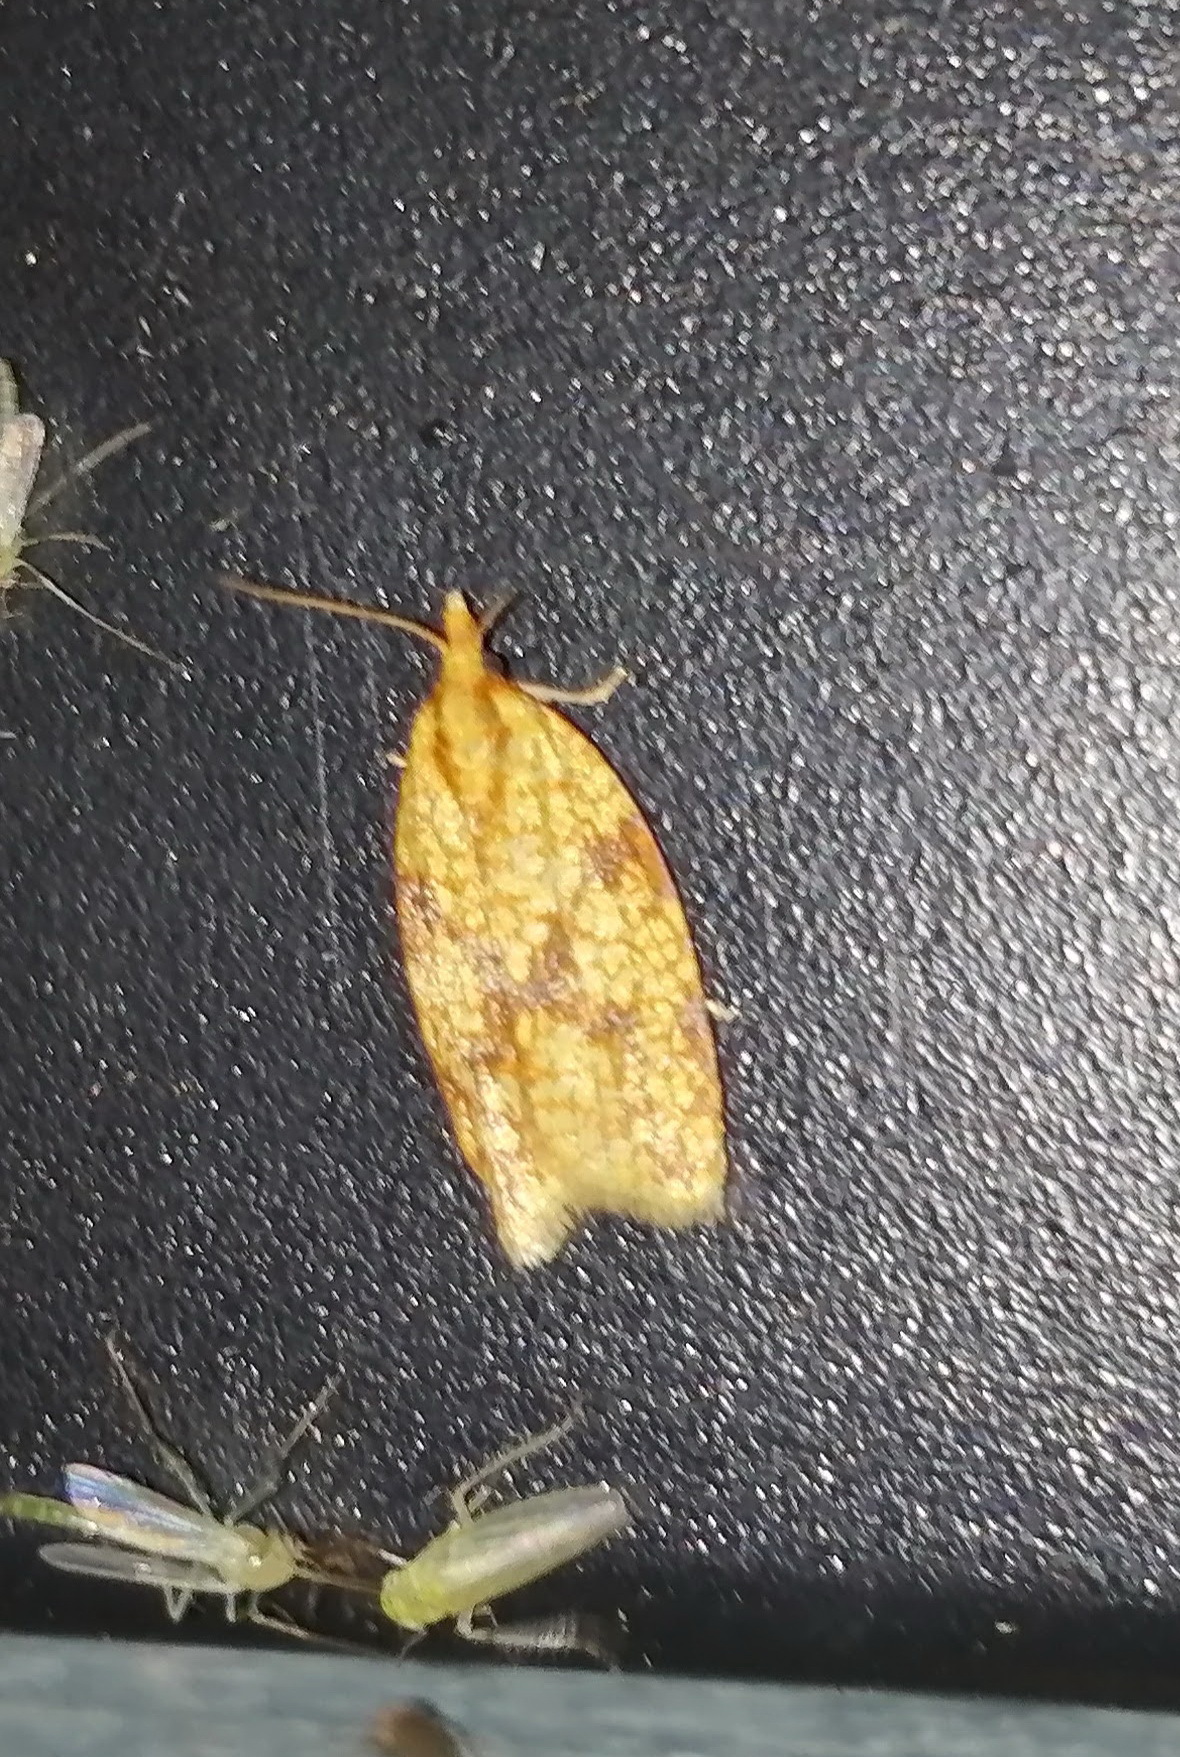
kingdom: Animalia
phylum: Arthropoda
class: Insecta
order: Lepidoptera
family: Tortricidae
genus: Sparganothis
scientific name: Sparganothis sulfureana
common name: Sparganothis fruitworm moth
